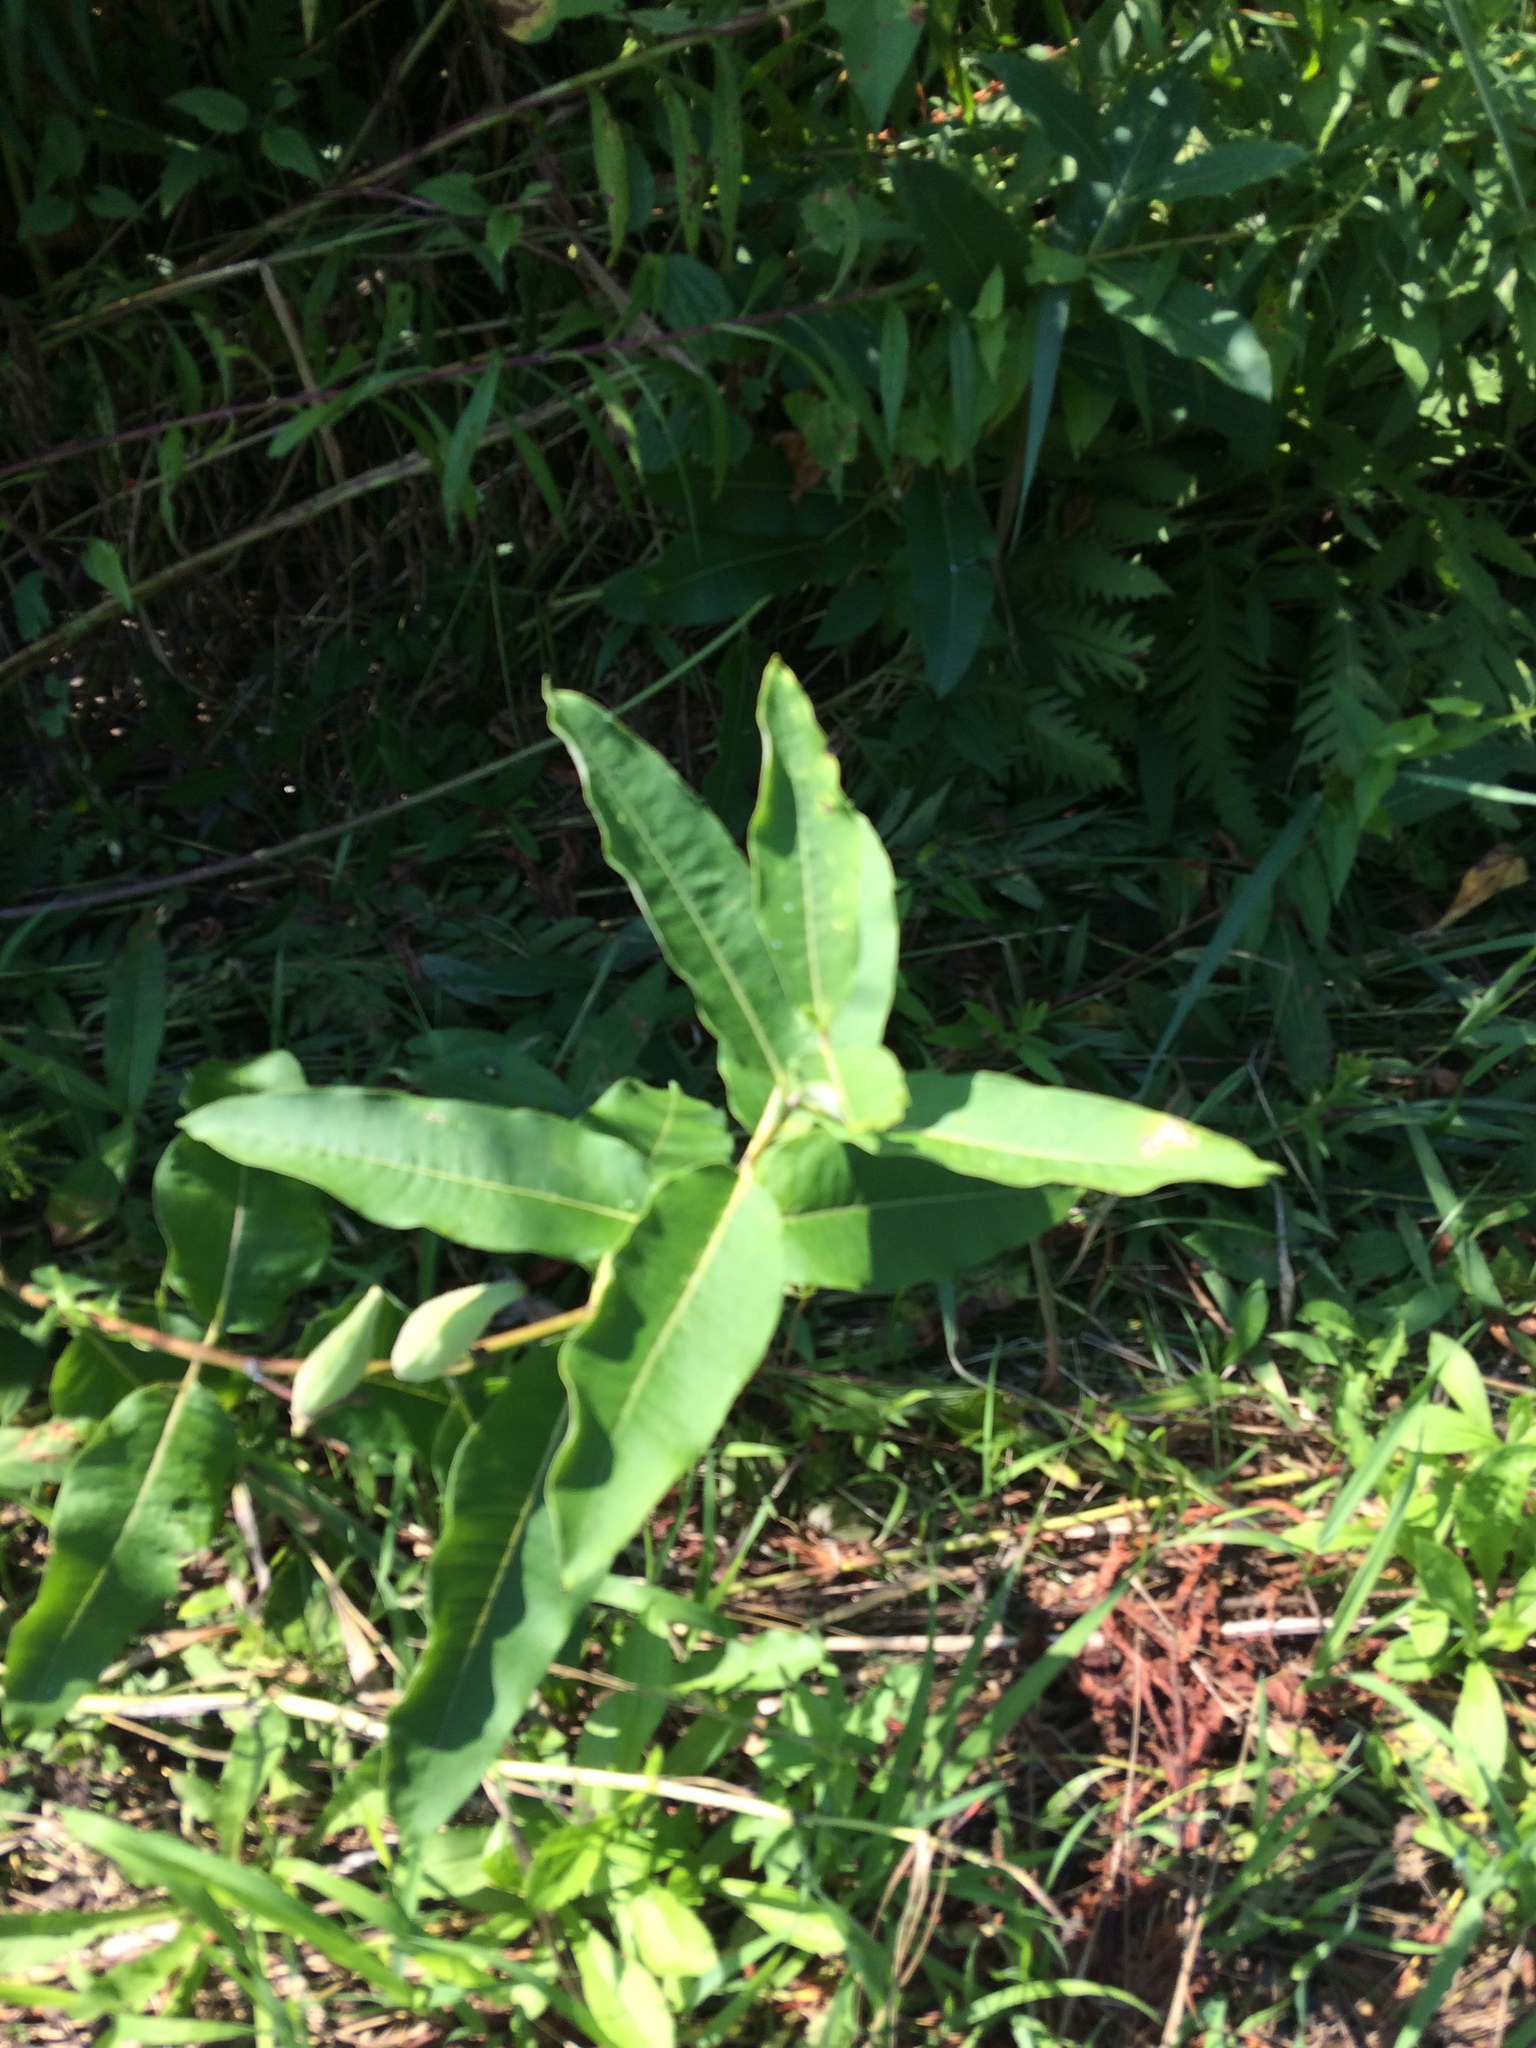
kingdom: Plantae
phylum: Tracheophyta
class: Magnoliopsida
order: Gentianales
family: Apocynaceae
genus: Asclepias
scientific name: Asclepias syriaca
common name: Common milkweed
